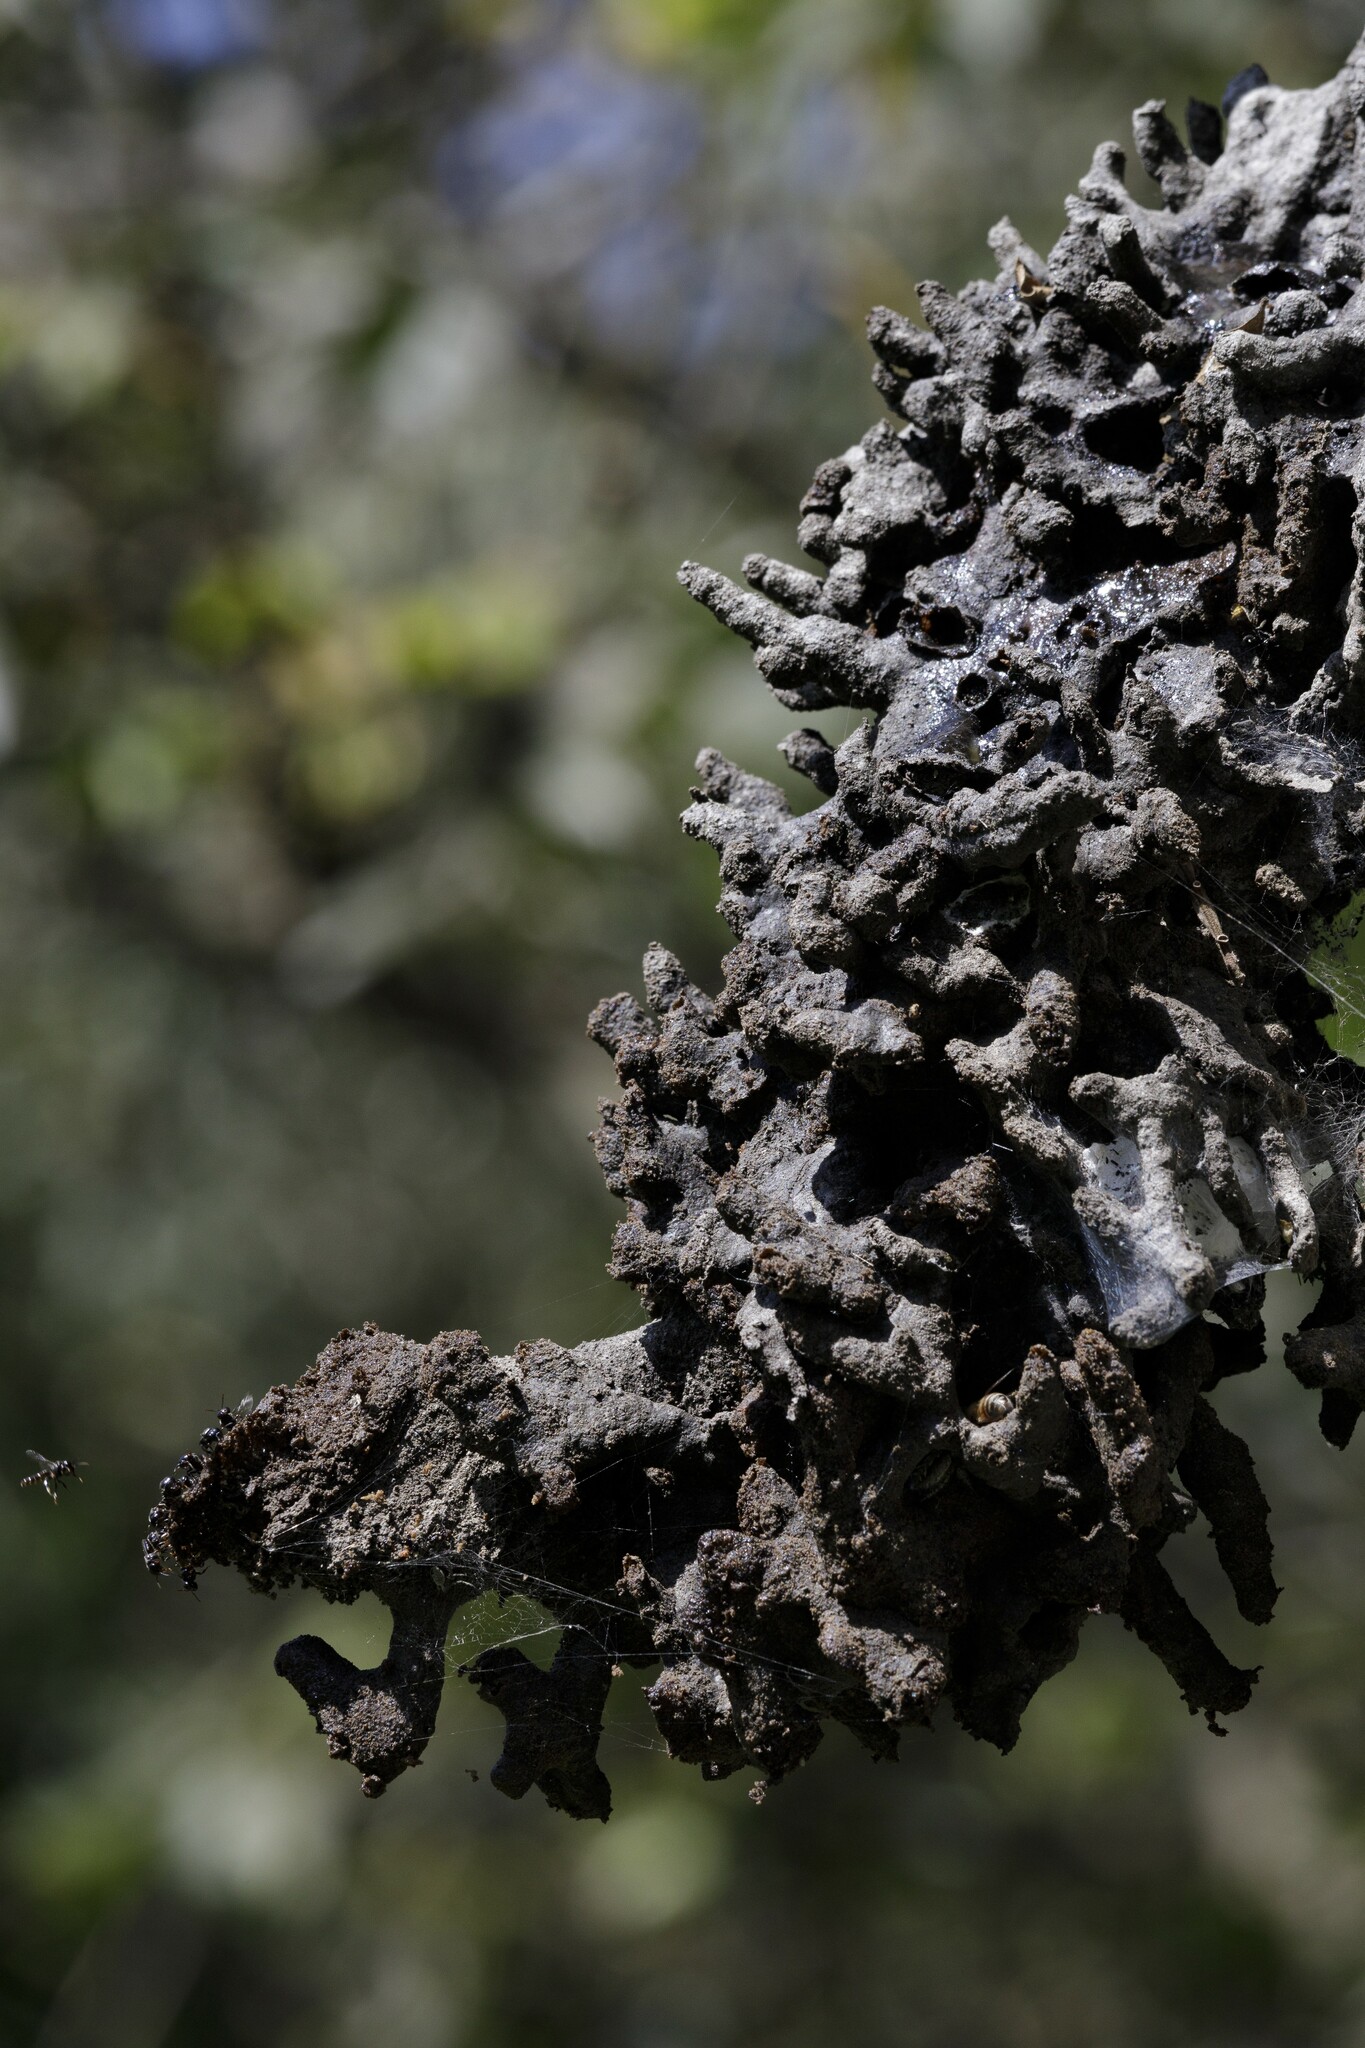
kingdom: Animalia
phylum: Arthropoda
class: Insecta
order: Hymenoptera
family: Apidae
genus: Lestrimelitta
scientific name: Lestrimelitta limao
